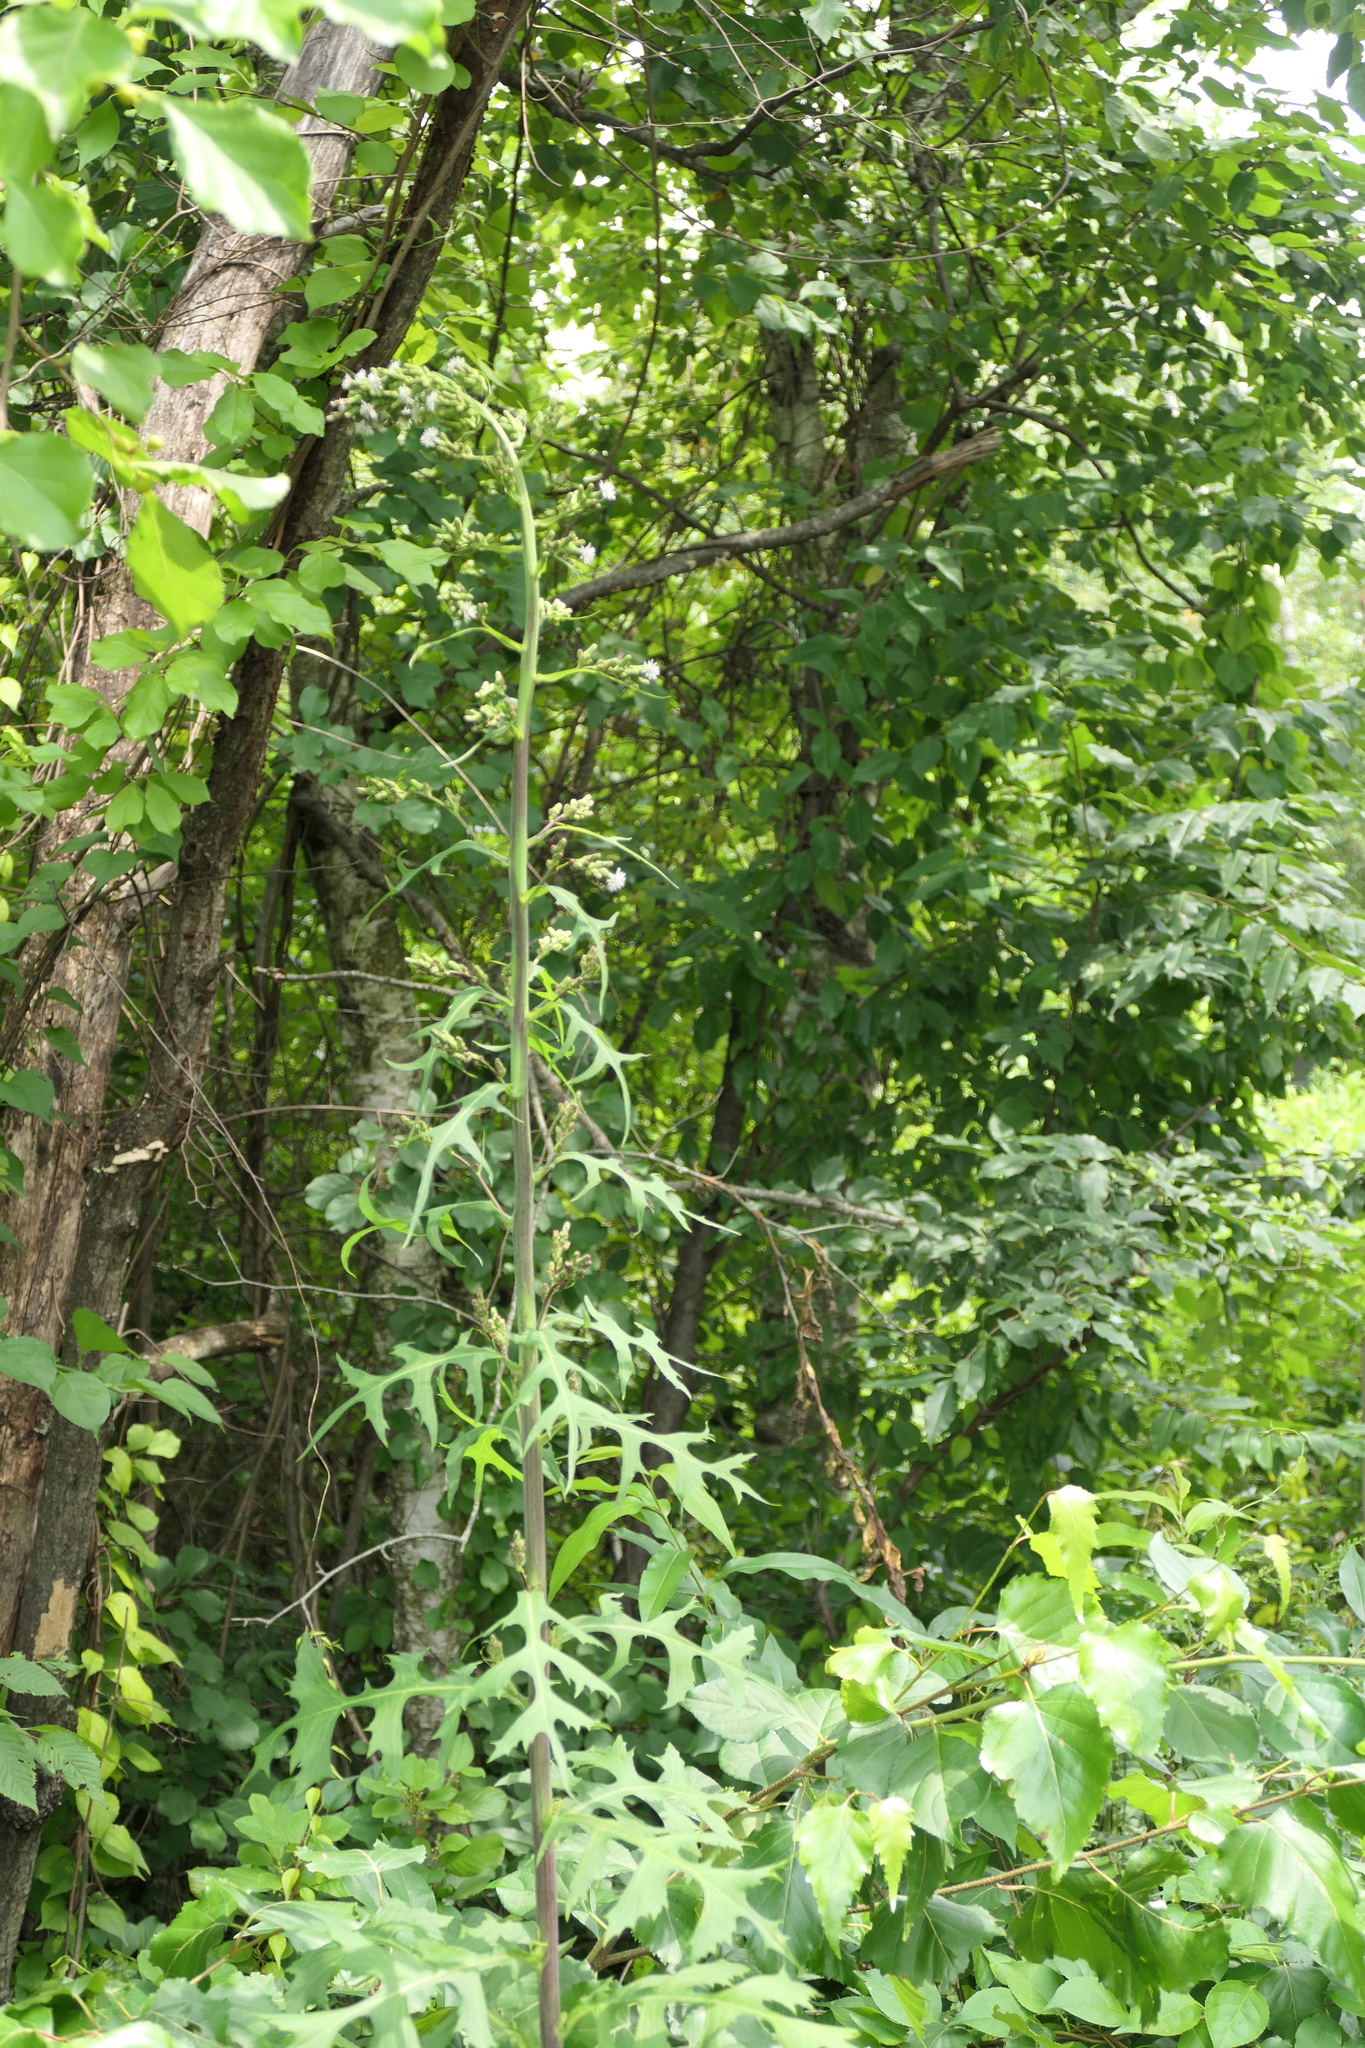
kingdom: Plantae
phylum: Tracheophyta
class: Magnoliopsida
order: Asterales
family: Asteraceae
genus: Lactuca
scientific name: Lactuca biennis
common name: Blue wood lettuce
